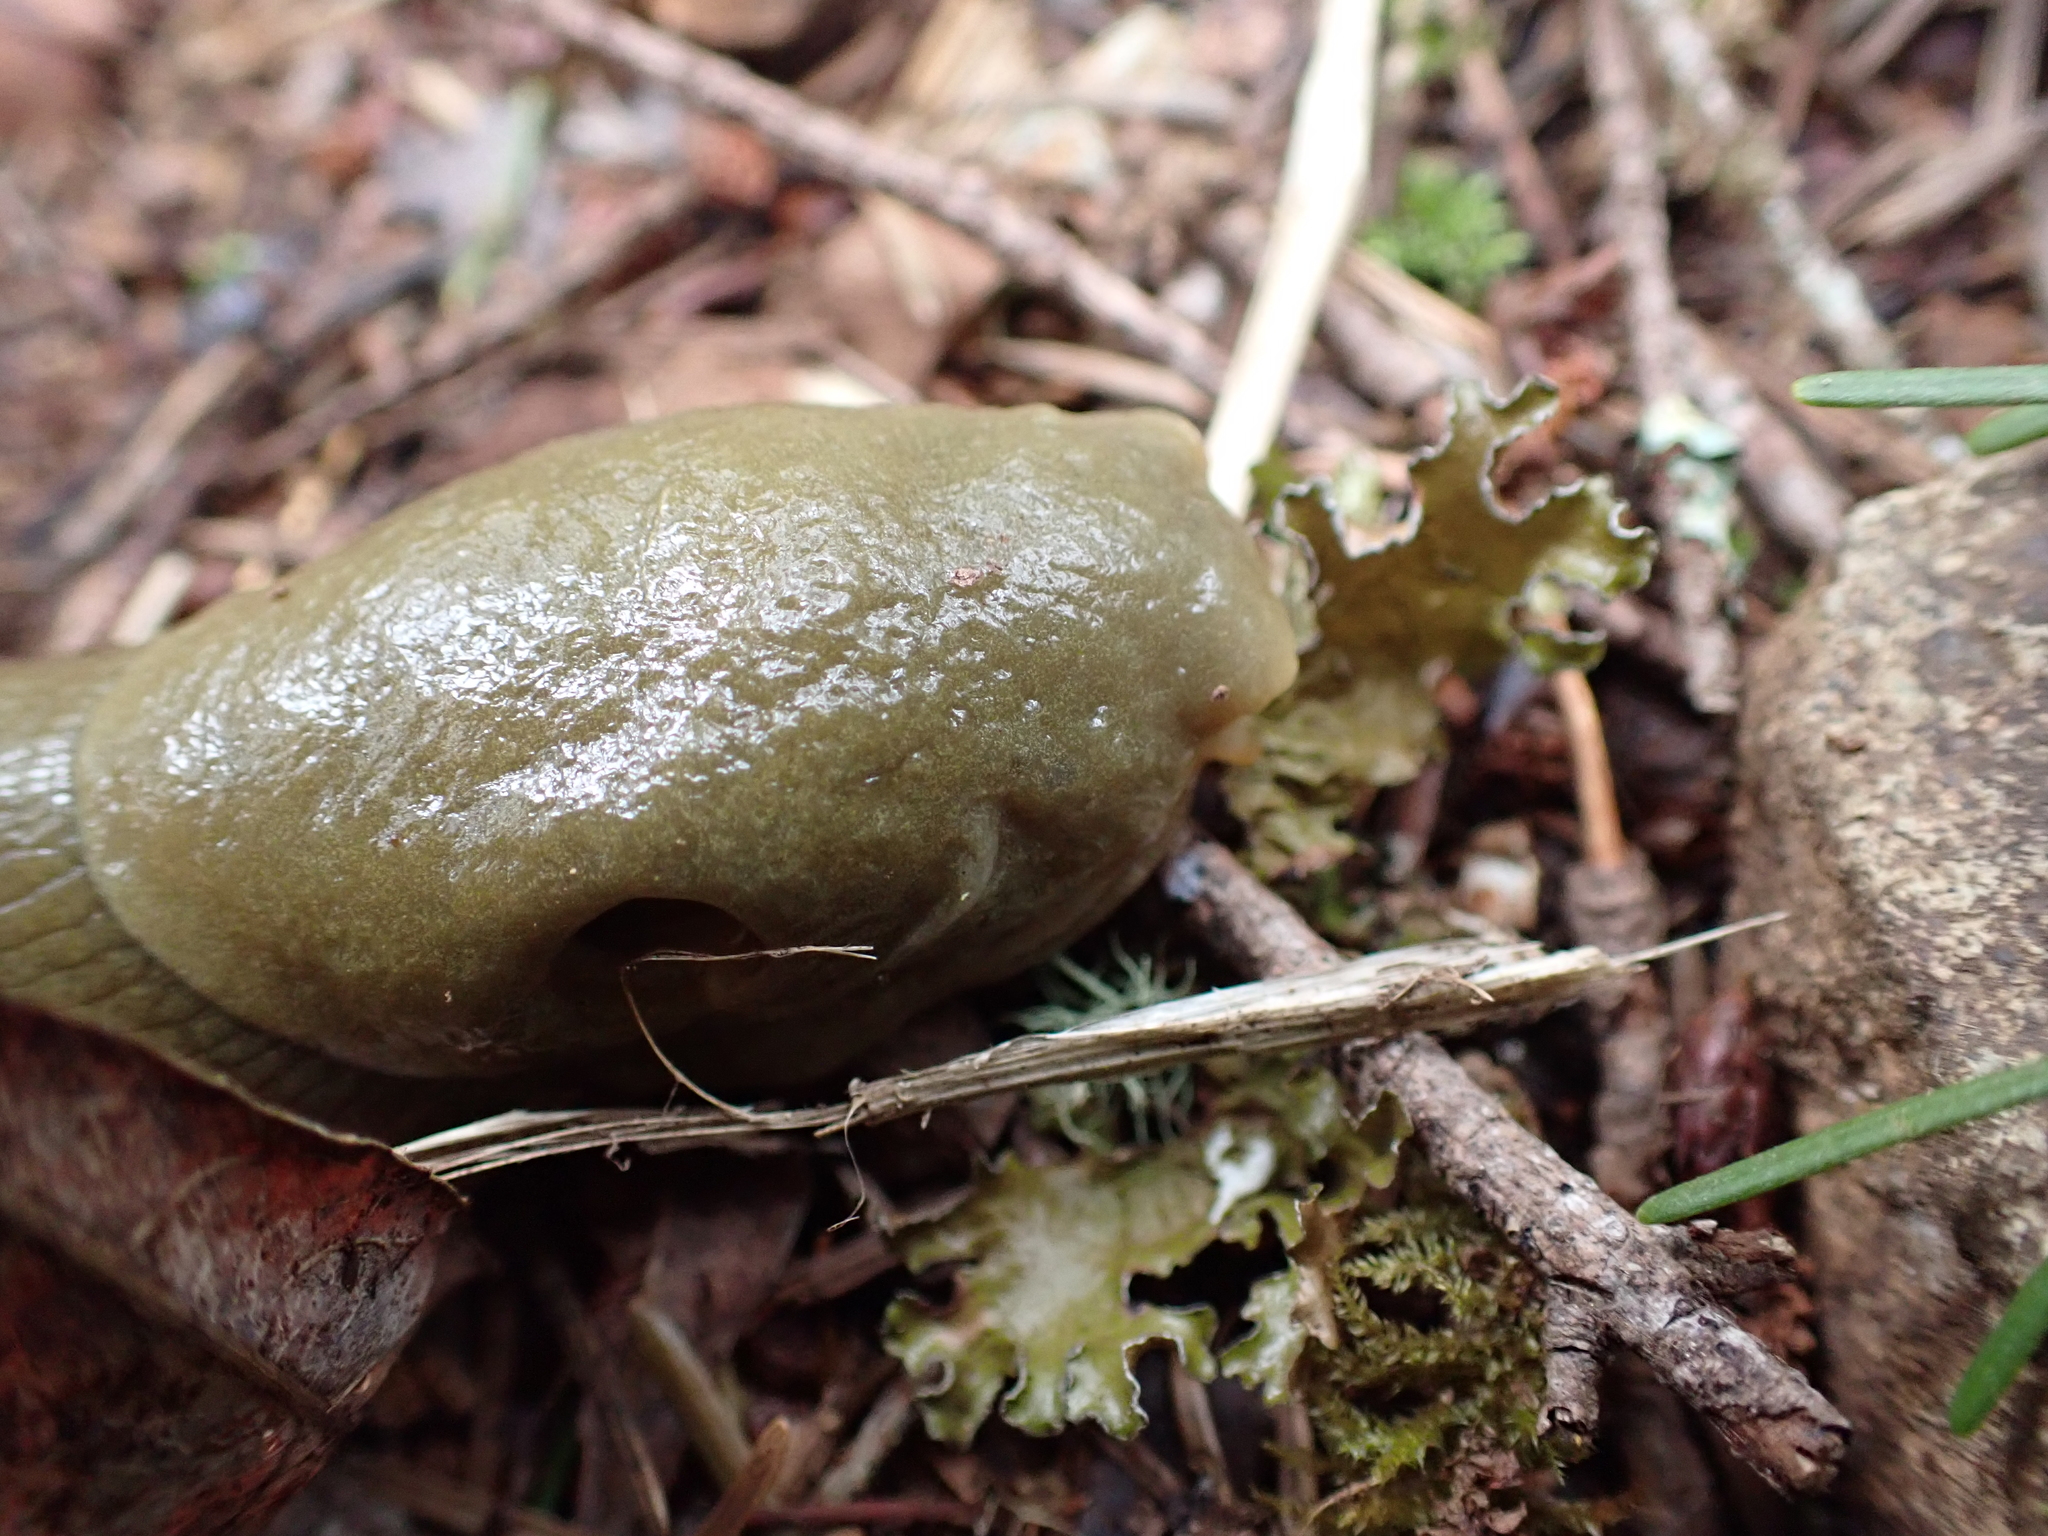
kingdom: Animalia
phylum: Mollusca
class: Gastropoda
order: Stylommatophora
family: Ariolimacidae
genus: Ariolimax
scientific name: Ariolimax columbianus
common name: Pacific banana slug
